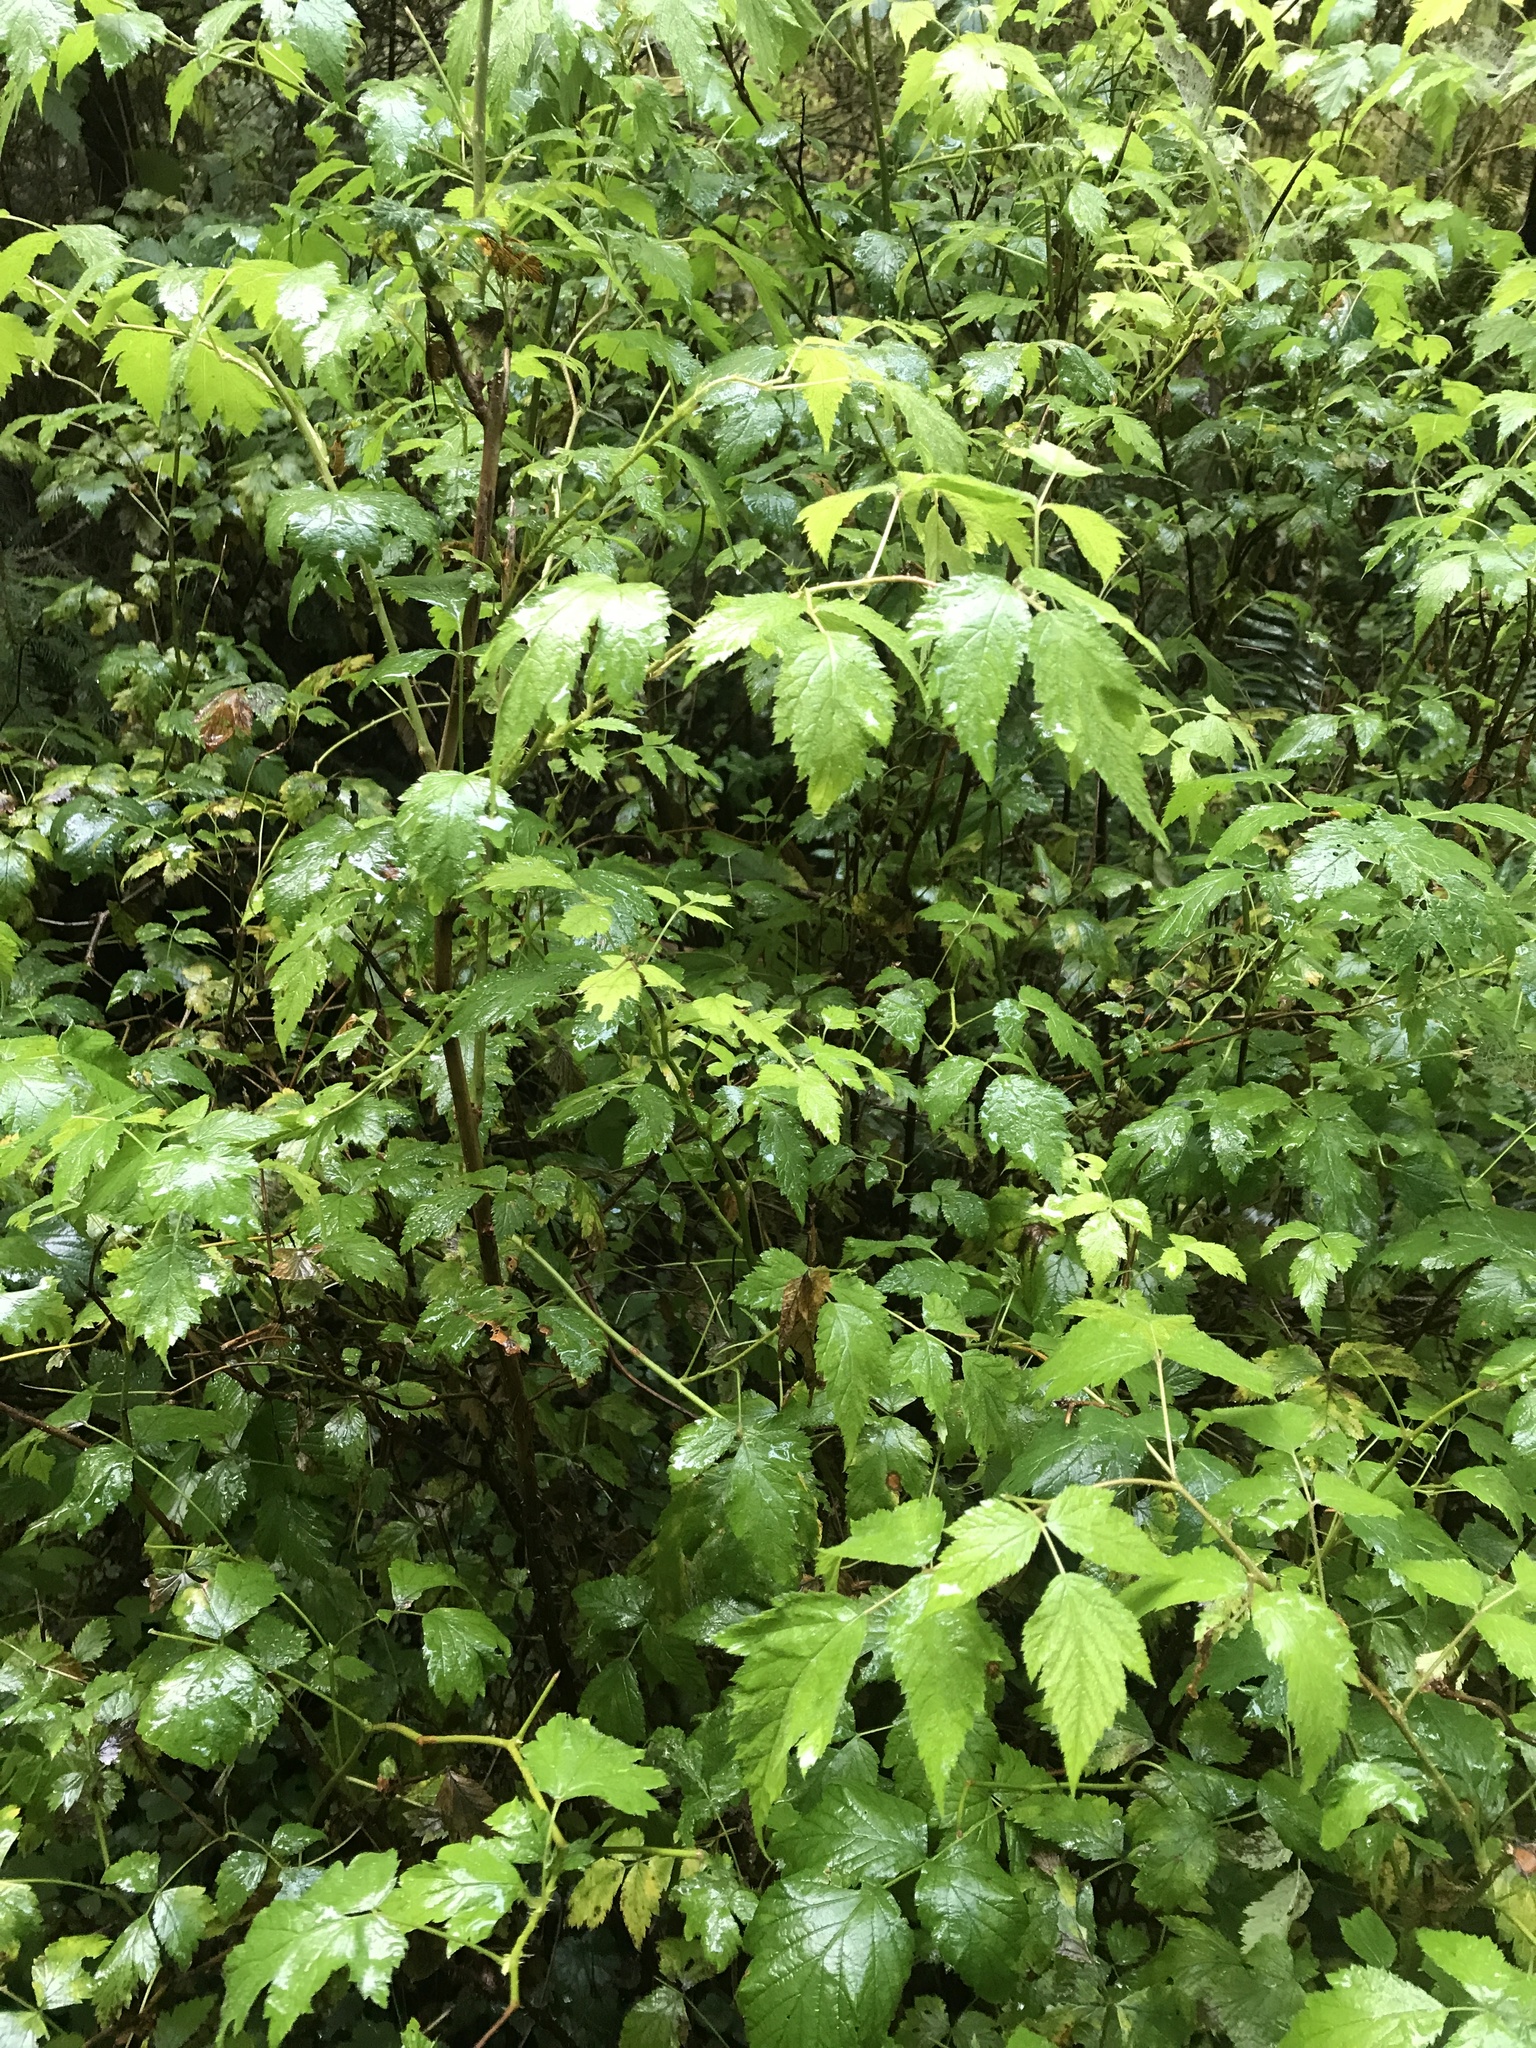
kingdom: Plantae
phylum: Tracheophyta
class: Magnoliopsida
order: Rosales
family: Rosaceae
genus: Rubus
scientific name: Rubus spectabilis
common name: Salmonberry
